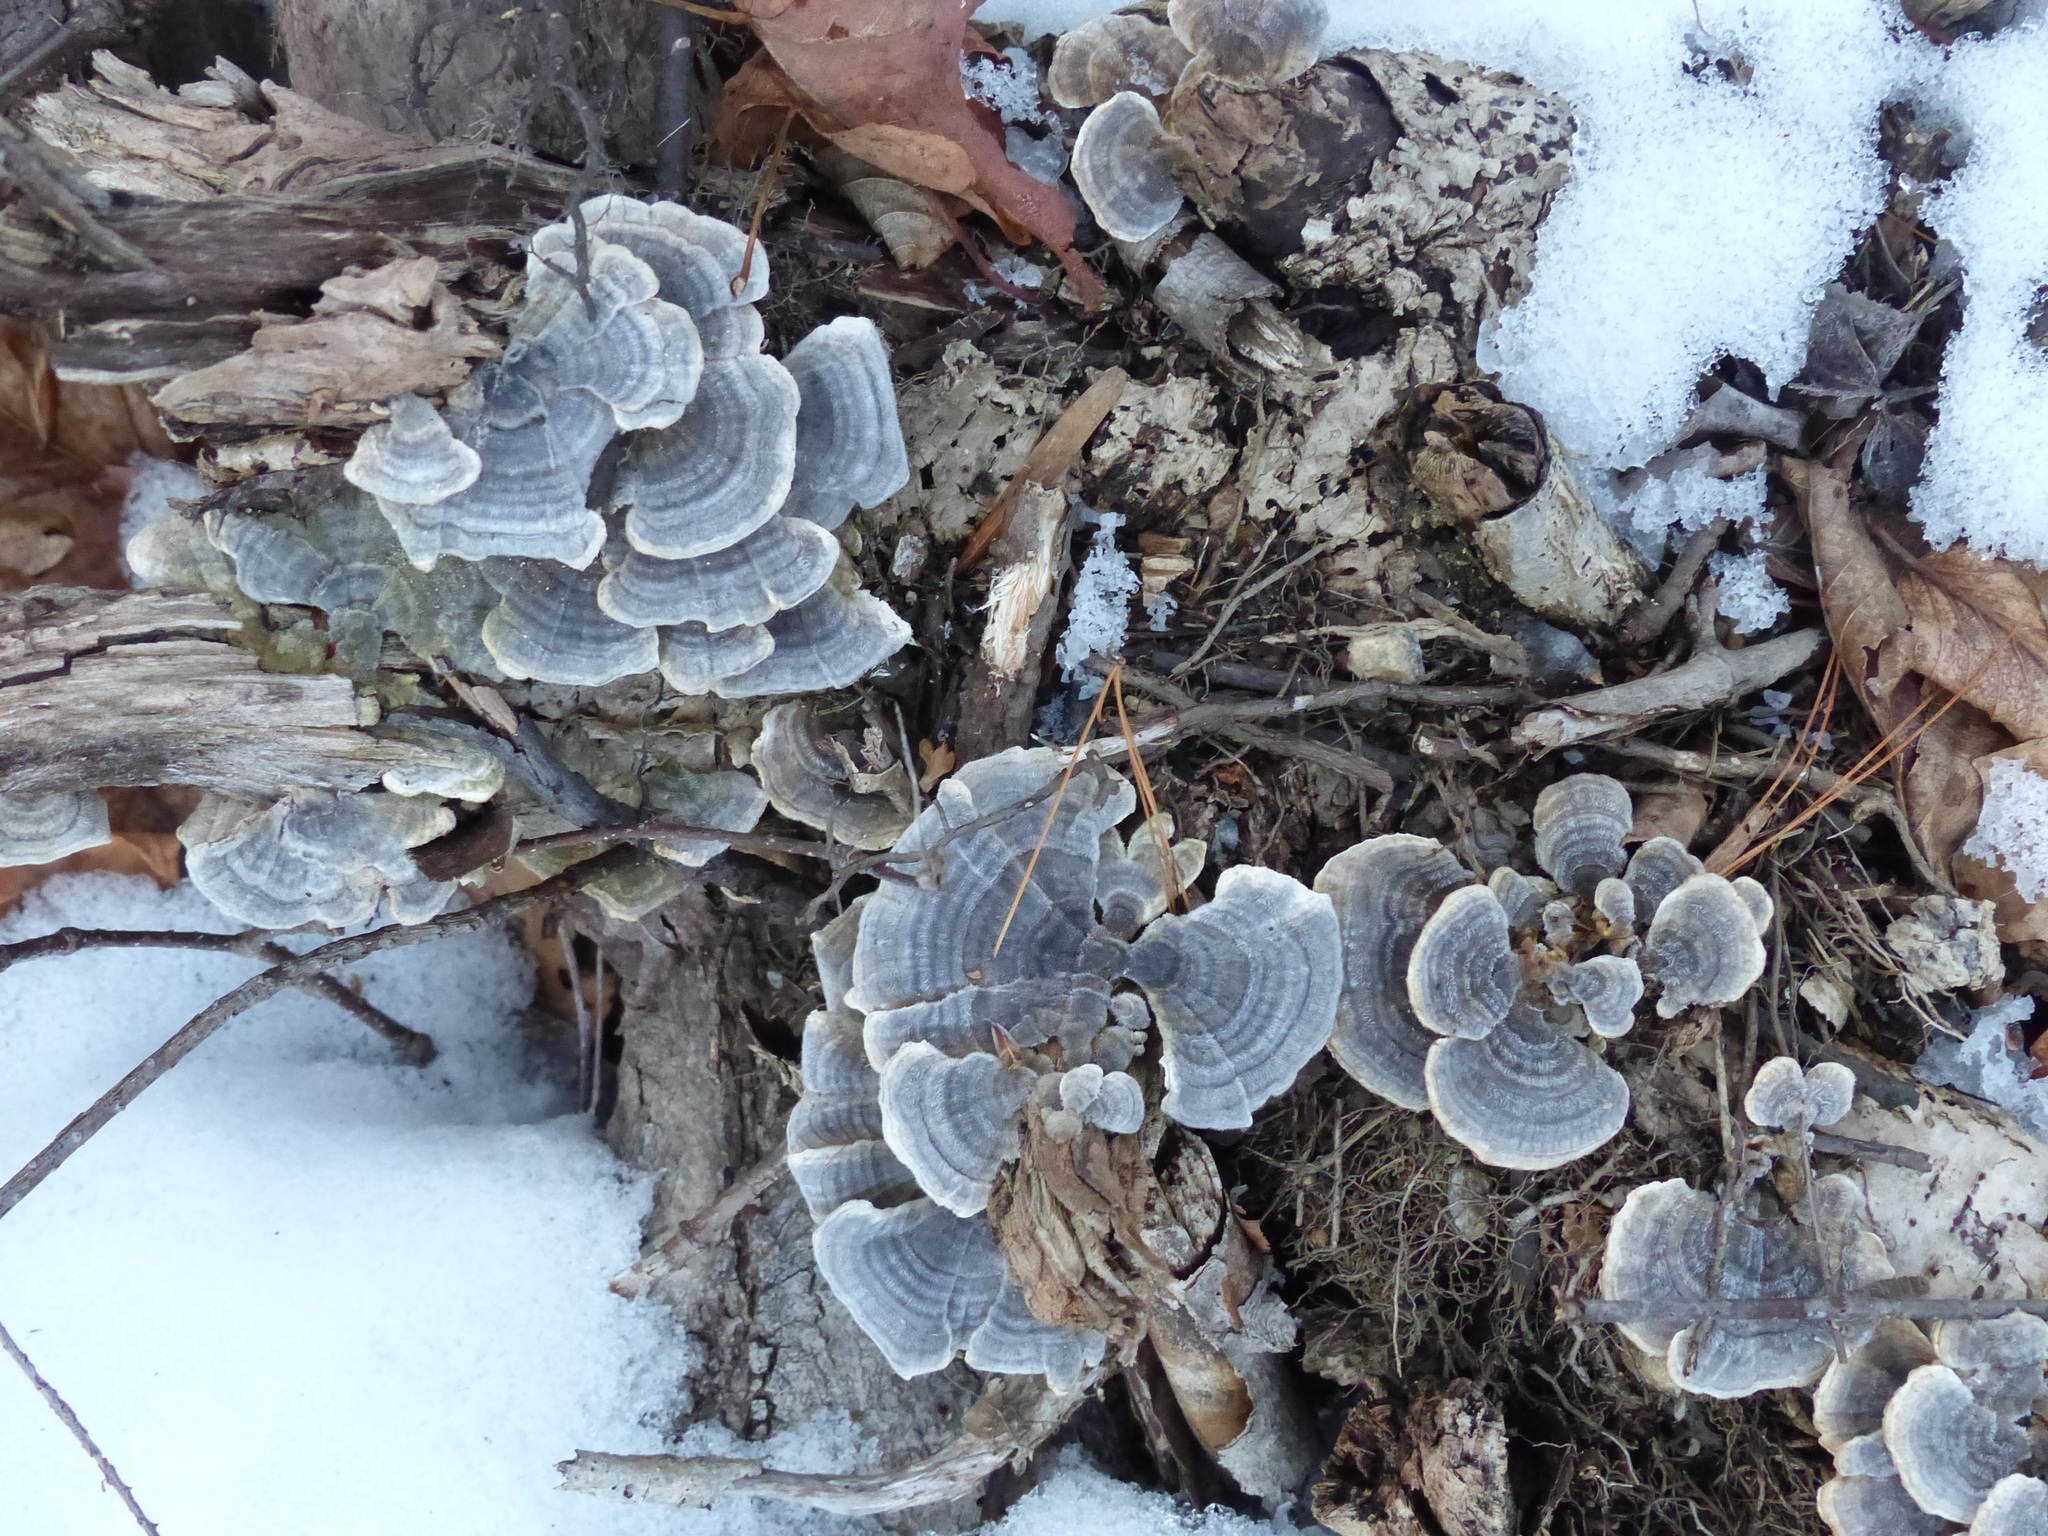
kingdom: Fungi
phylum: Basidiomycota
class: Agaricomycetes
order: Polyporales
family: Polyporaceae
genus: Trametes
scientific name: Trametes versicolor
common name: Turkeytail
